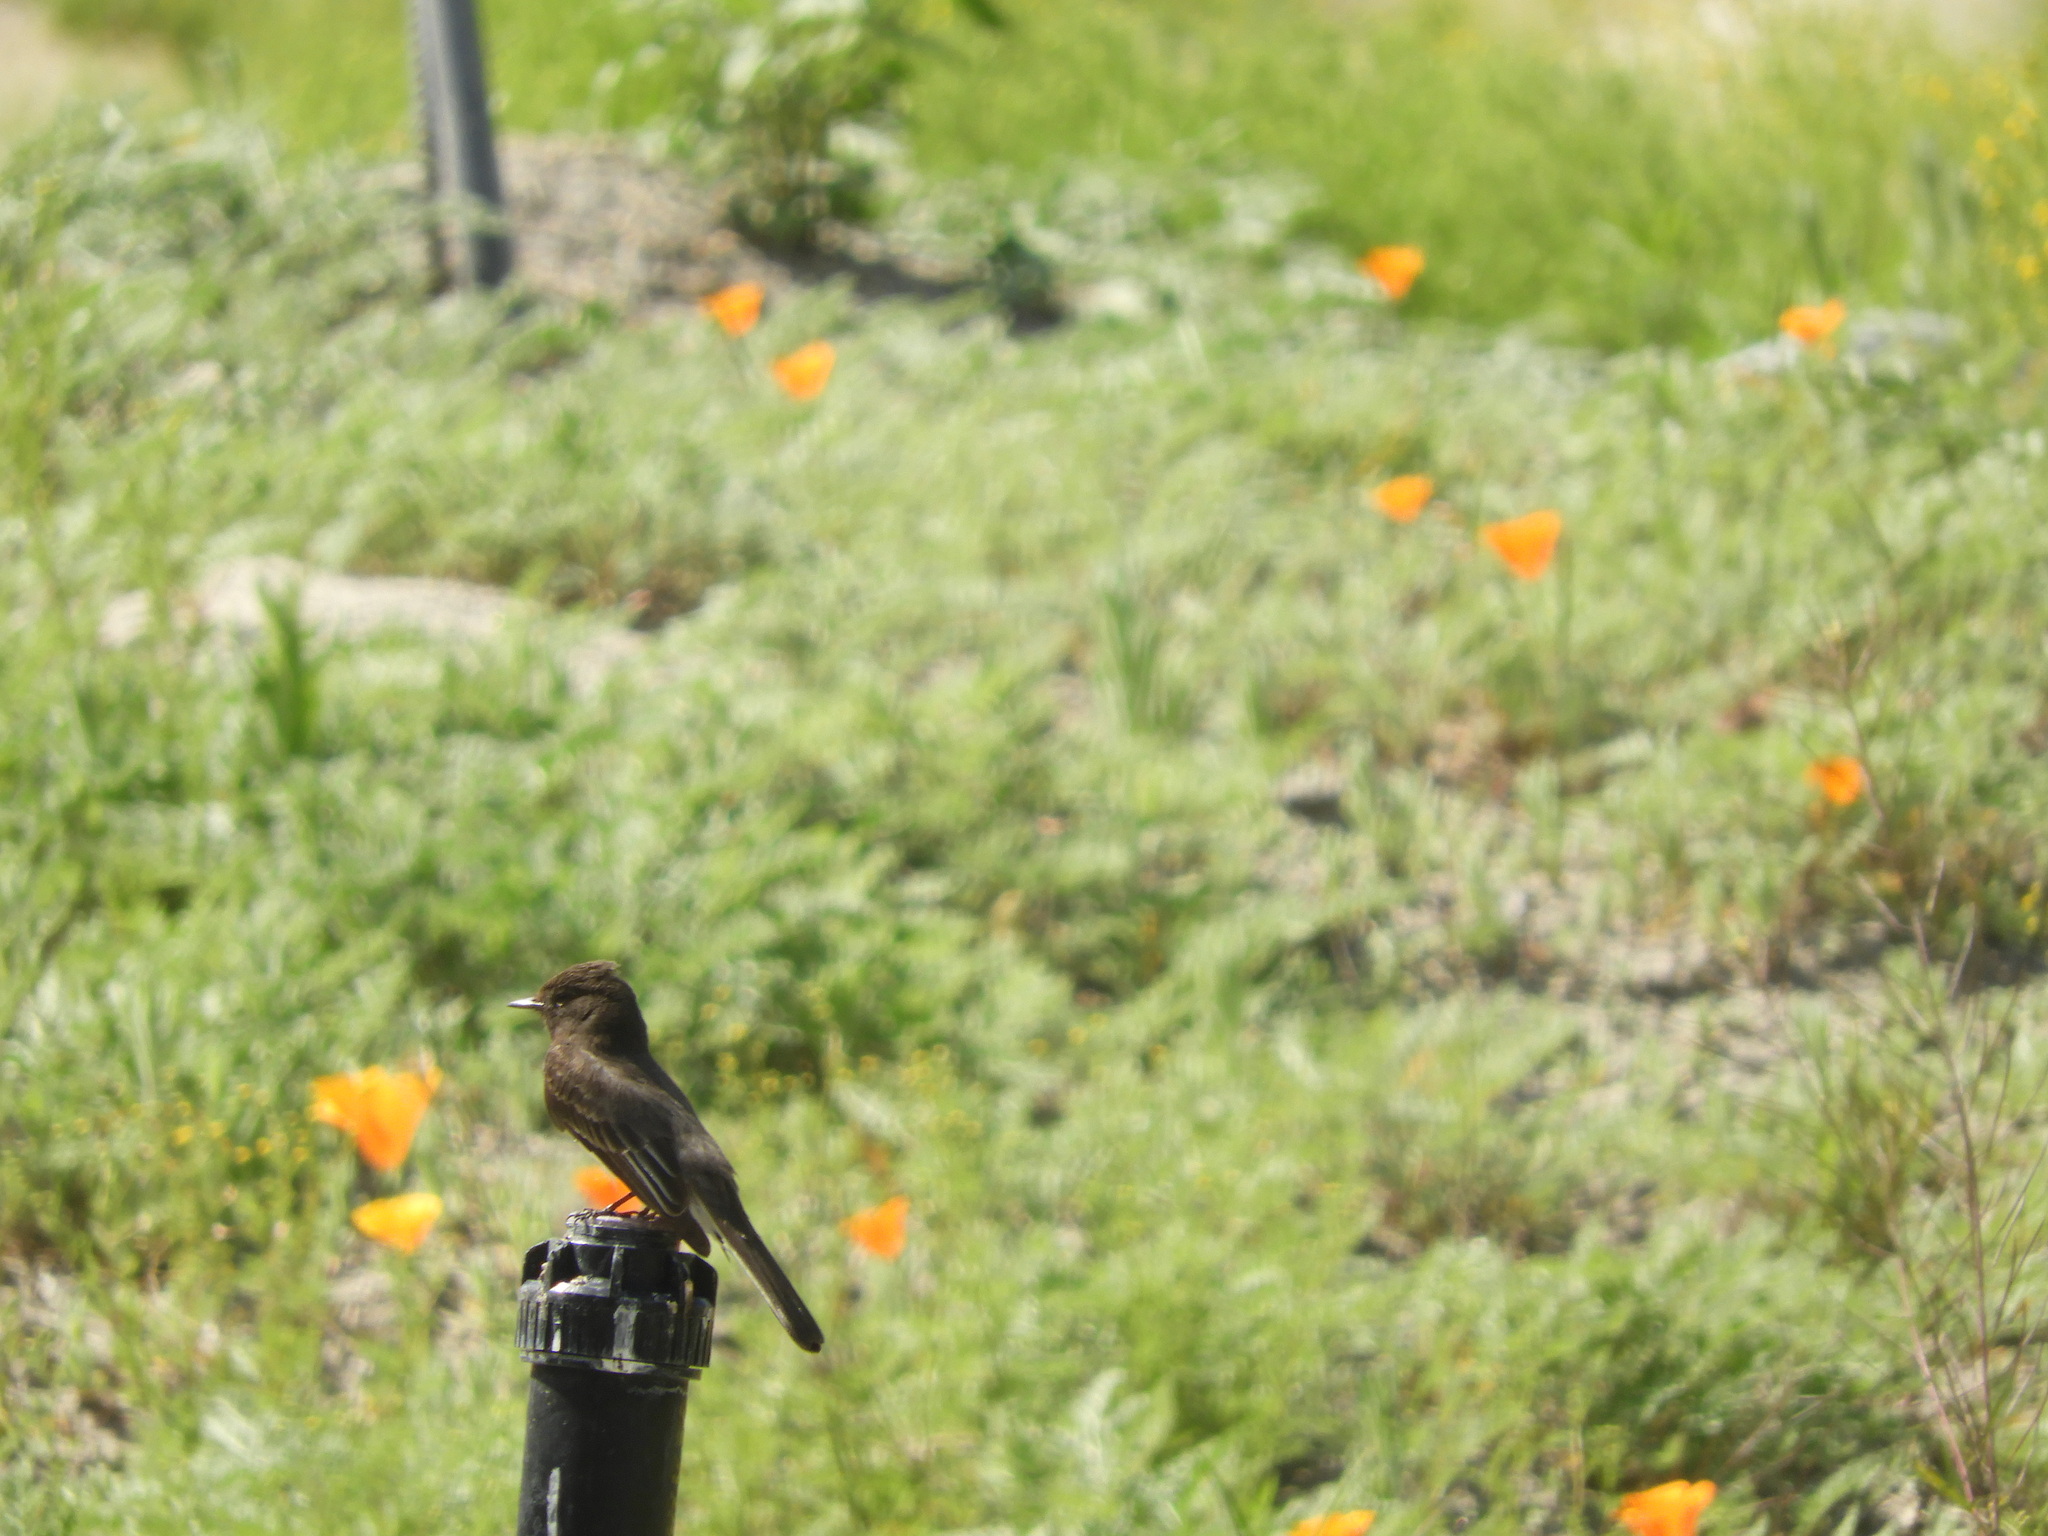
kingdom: Animalia
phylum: Chordata
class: Aves
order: Passeriformes
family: Tyrannidae
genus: Sayornis
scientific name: Sayornis nigricans
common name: Black phoebe
